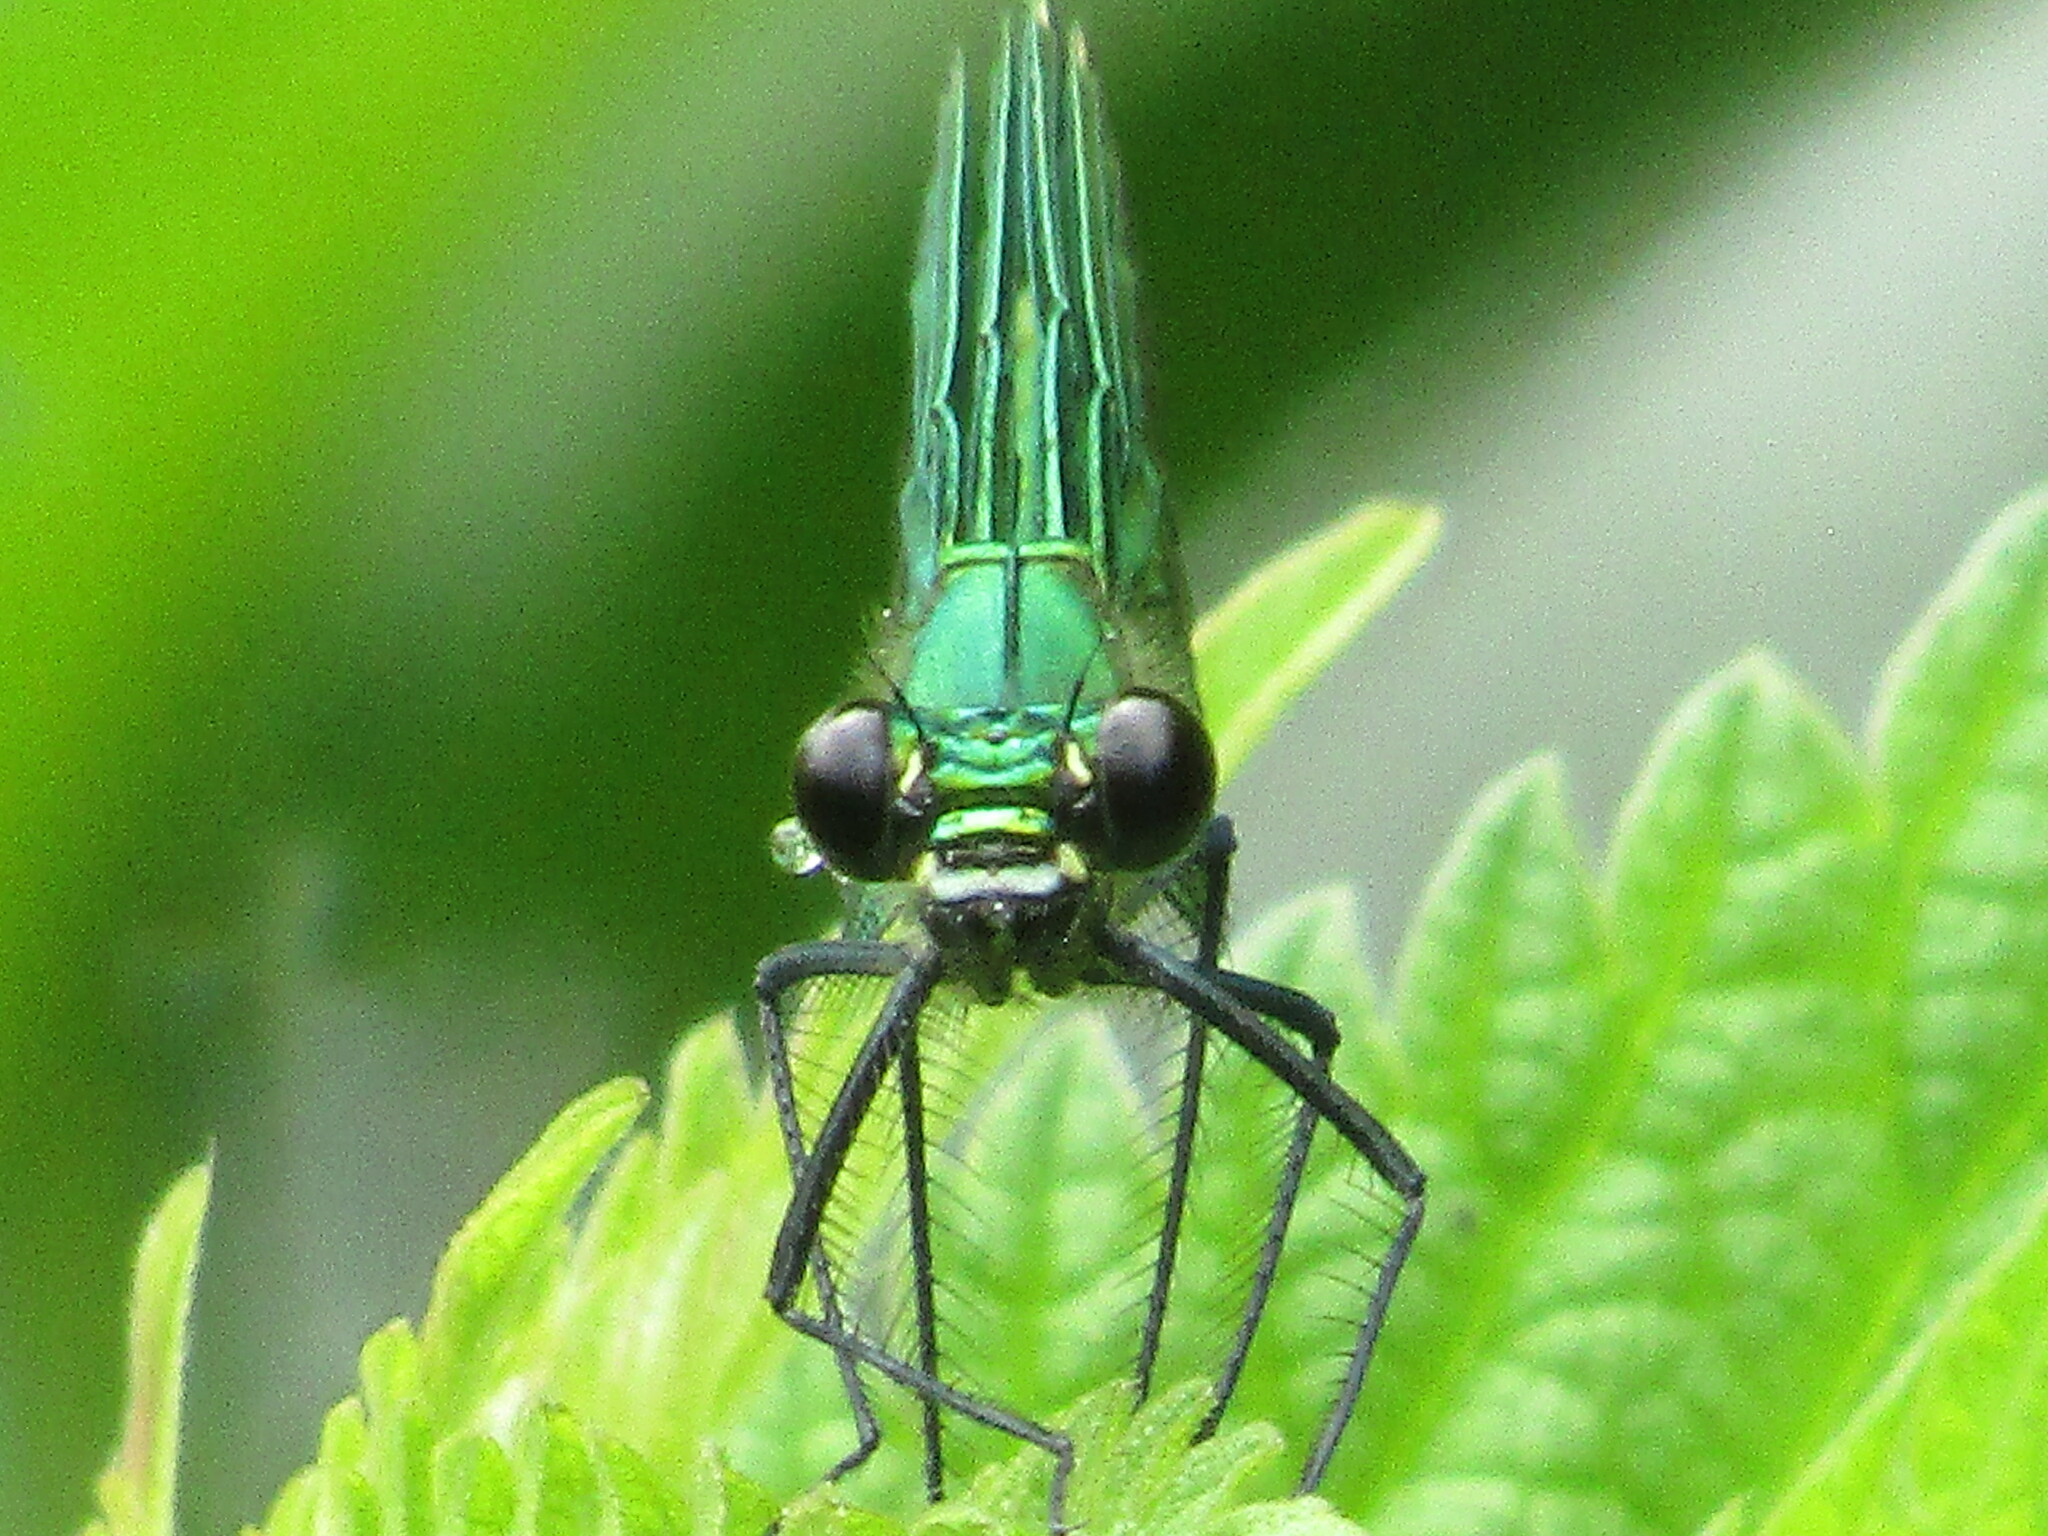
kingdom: Animalia
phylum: Arthropoda
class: Insecta
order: Odonata
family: Calopterygidae
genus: Calopteryx
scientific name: Calopteryx virgo
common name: Beautiful demoiselle
